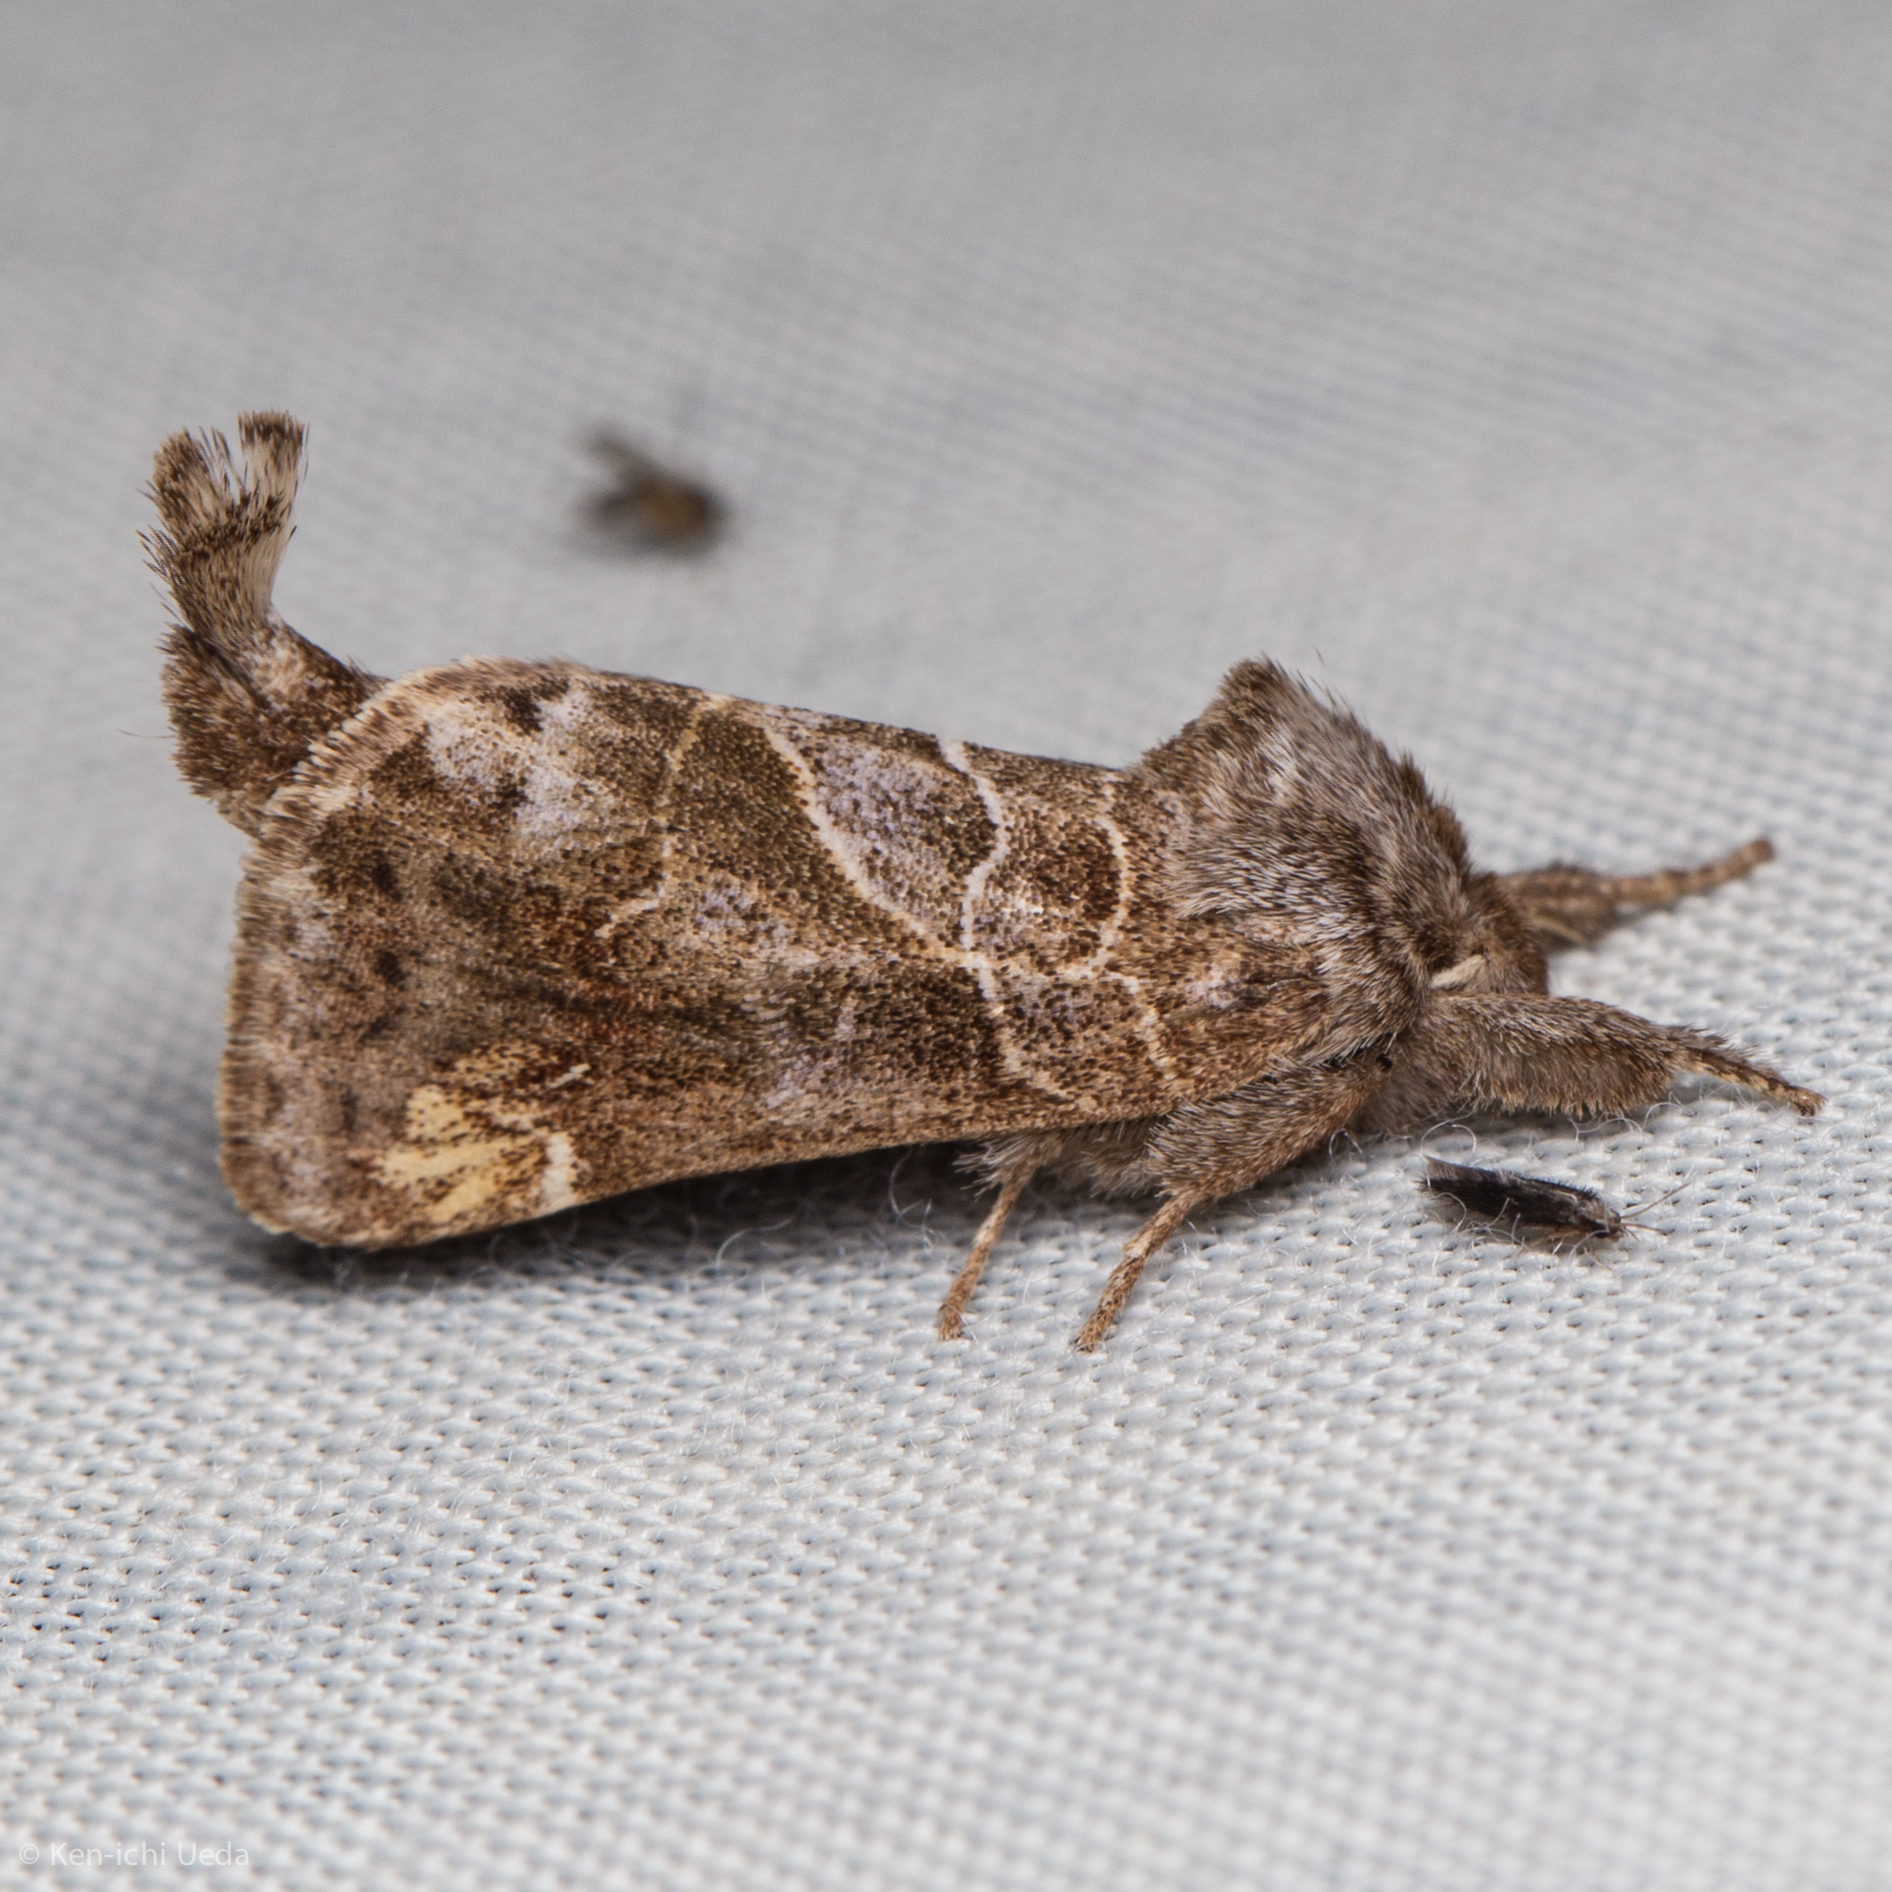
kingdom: Animalia
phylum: Arthropoda
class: Insecta
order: Lepidoptera
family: Notodontidae
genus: Clostera
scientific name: Clostera strigosa
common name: Striped chocolate-tip moth
